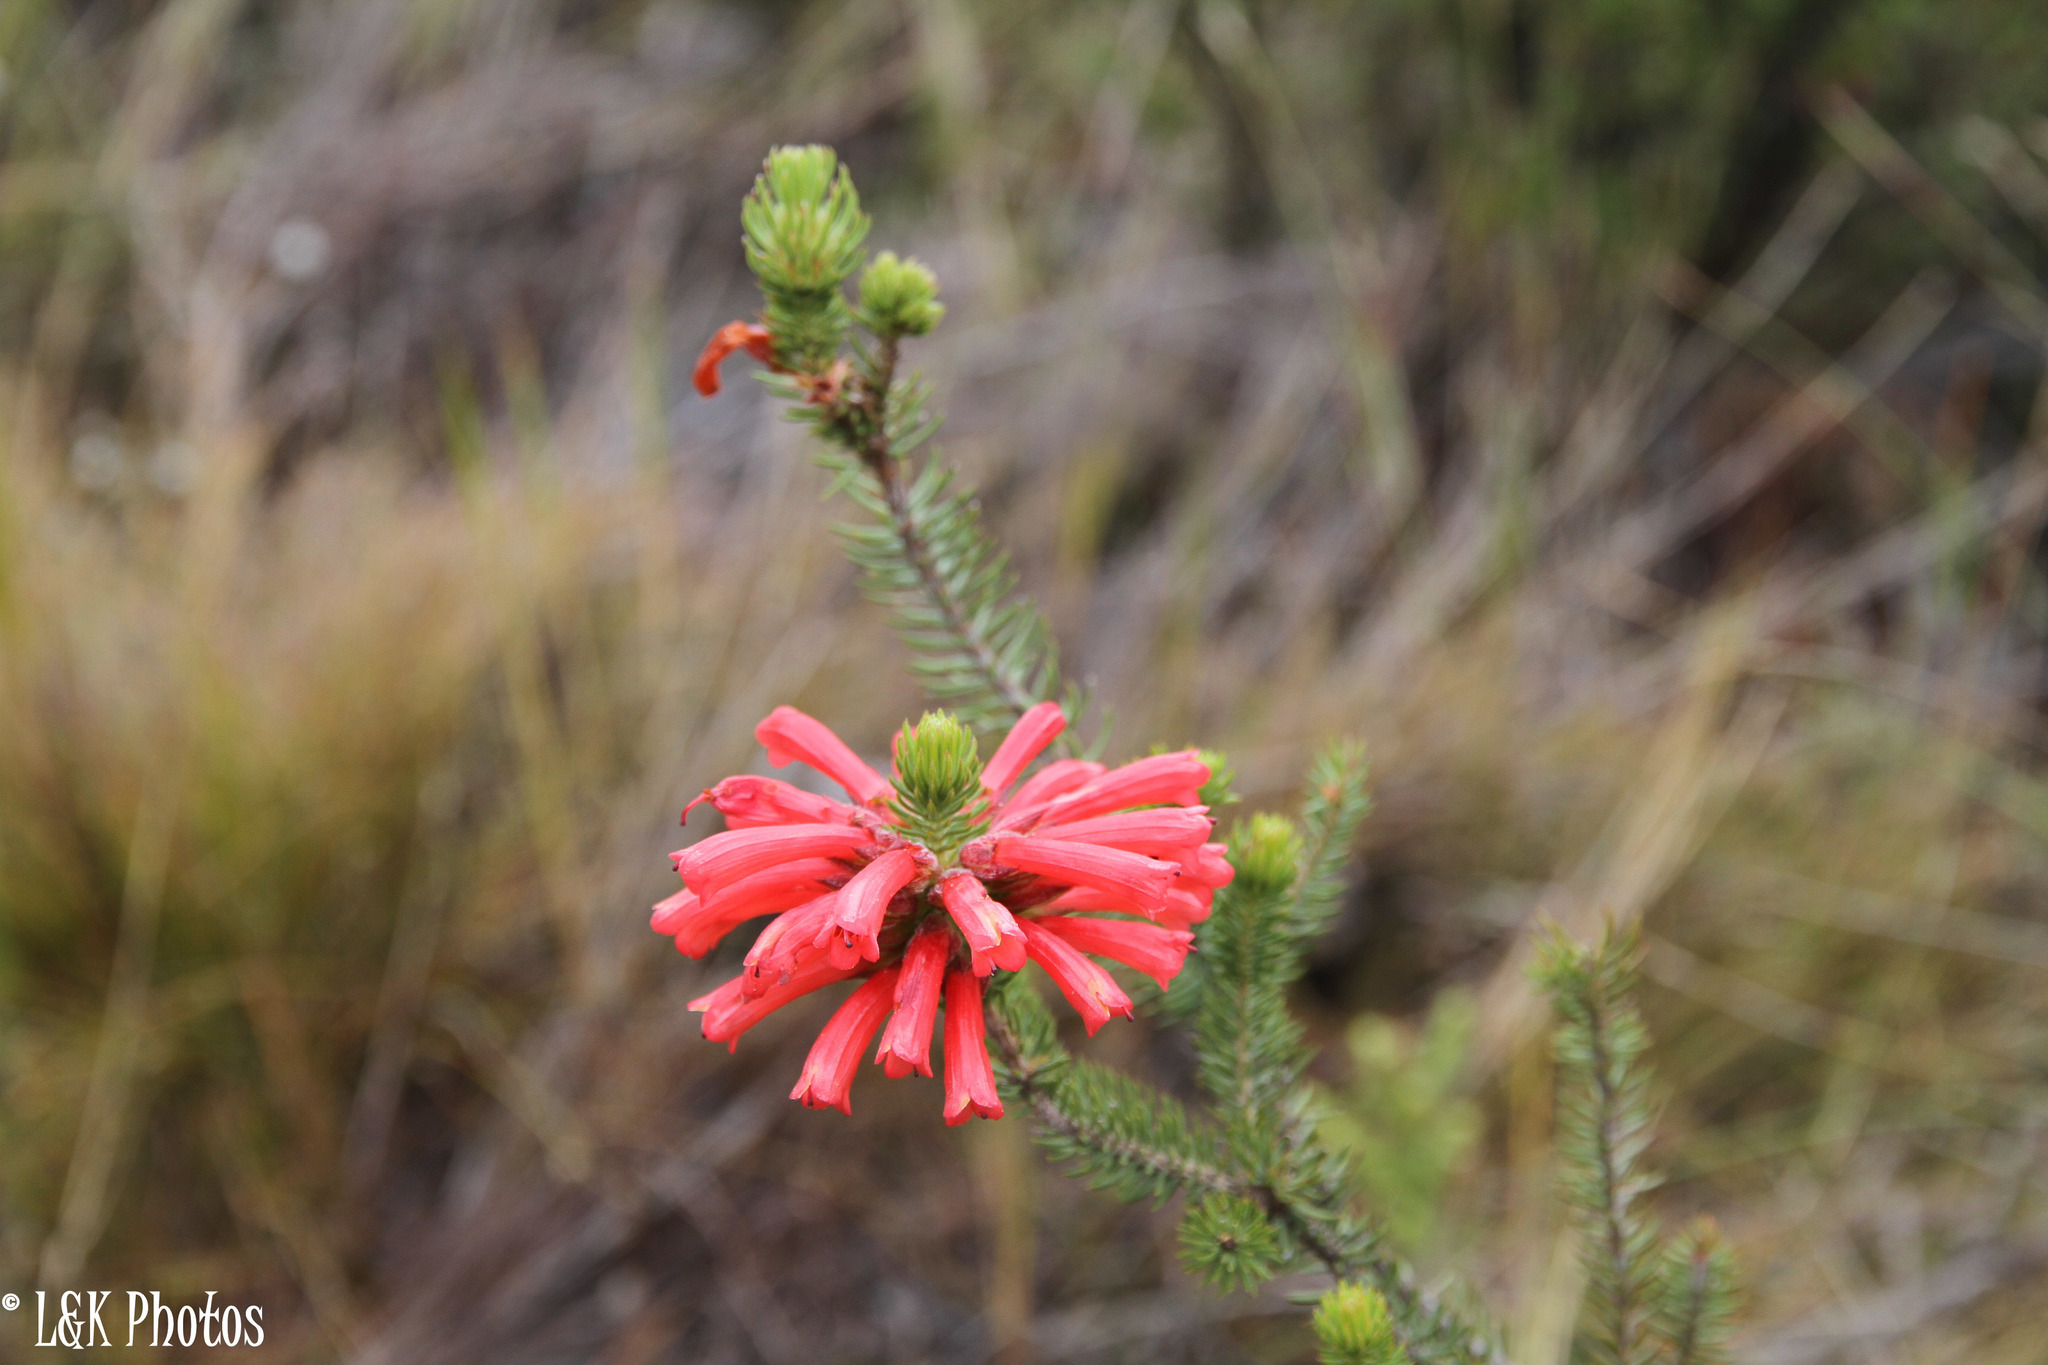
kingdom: Plantae
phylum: Tracheophyta
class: Magnoliopsida
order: Ericales
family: Ericaceae
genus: Erica
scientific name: Erica abietina
